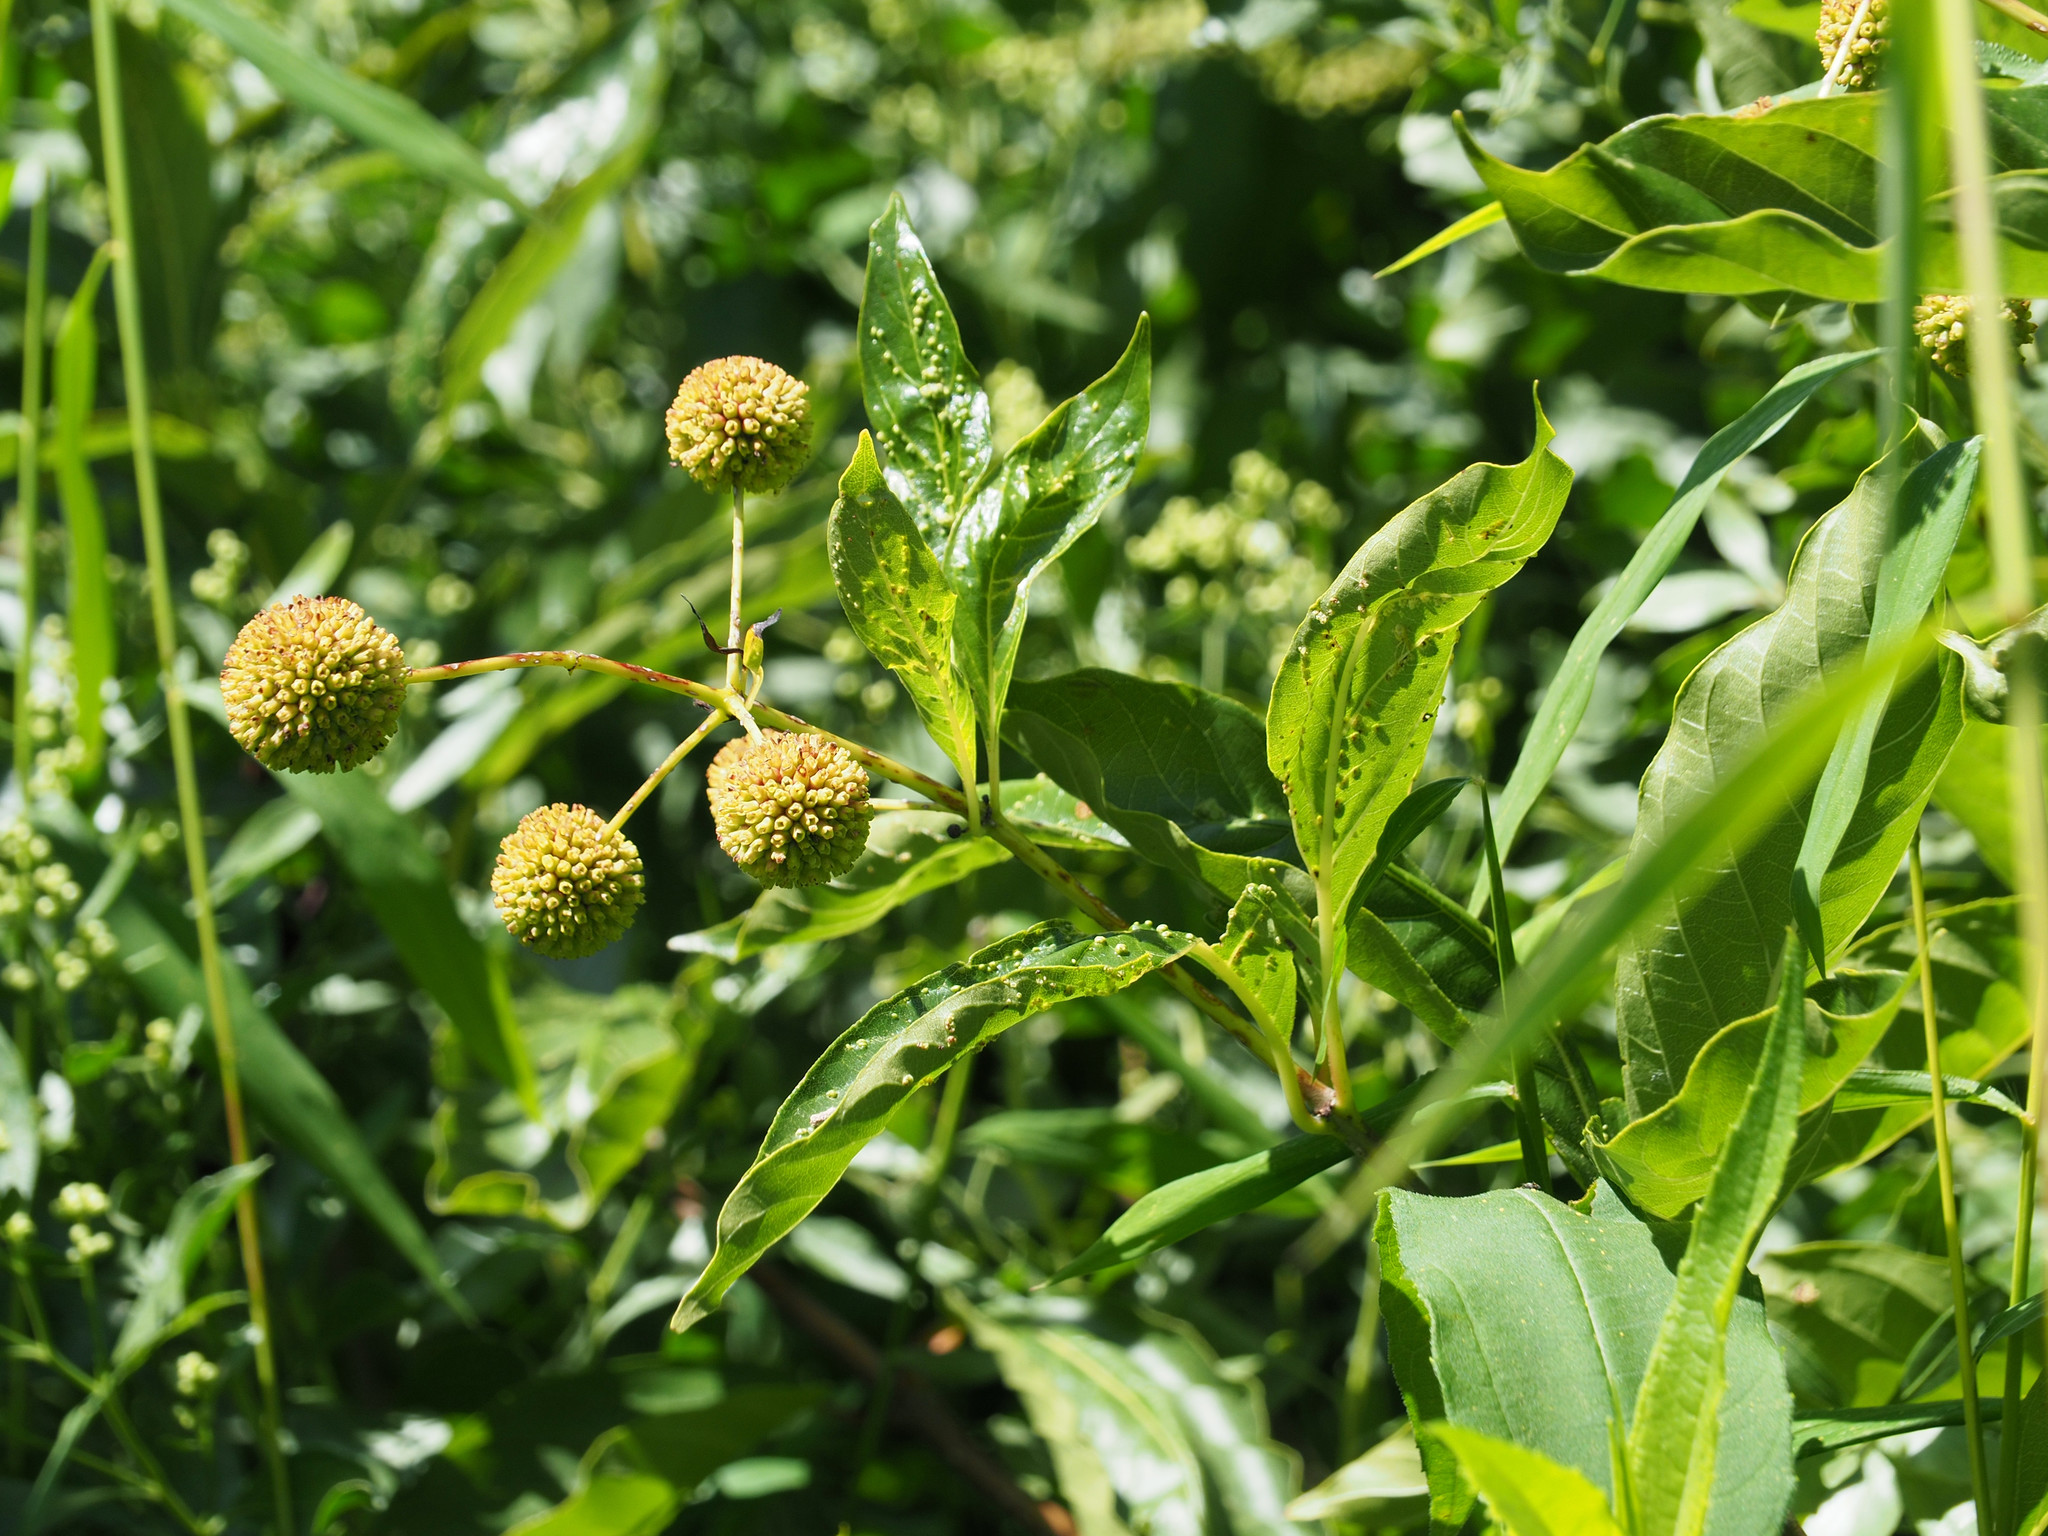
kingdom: Plantae
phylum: Tracheophyta
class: Magnoliopsida
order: Gentianales
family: Rubiaceae
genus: Cephalanthus
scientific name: Cephalanthus occidentalis
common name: Button-willow
